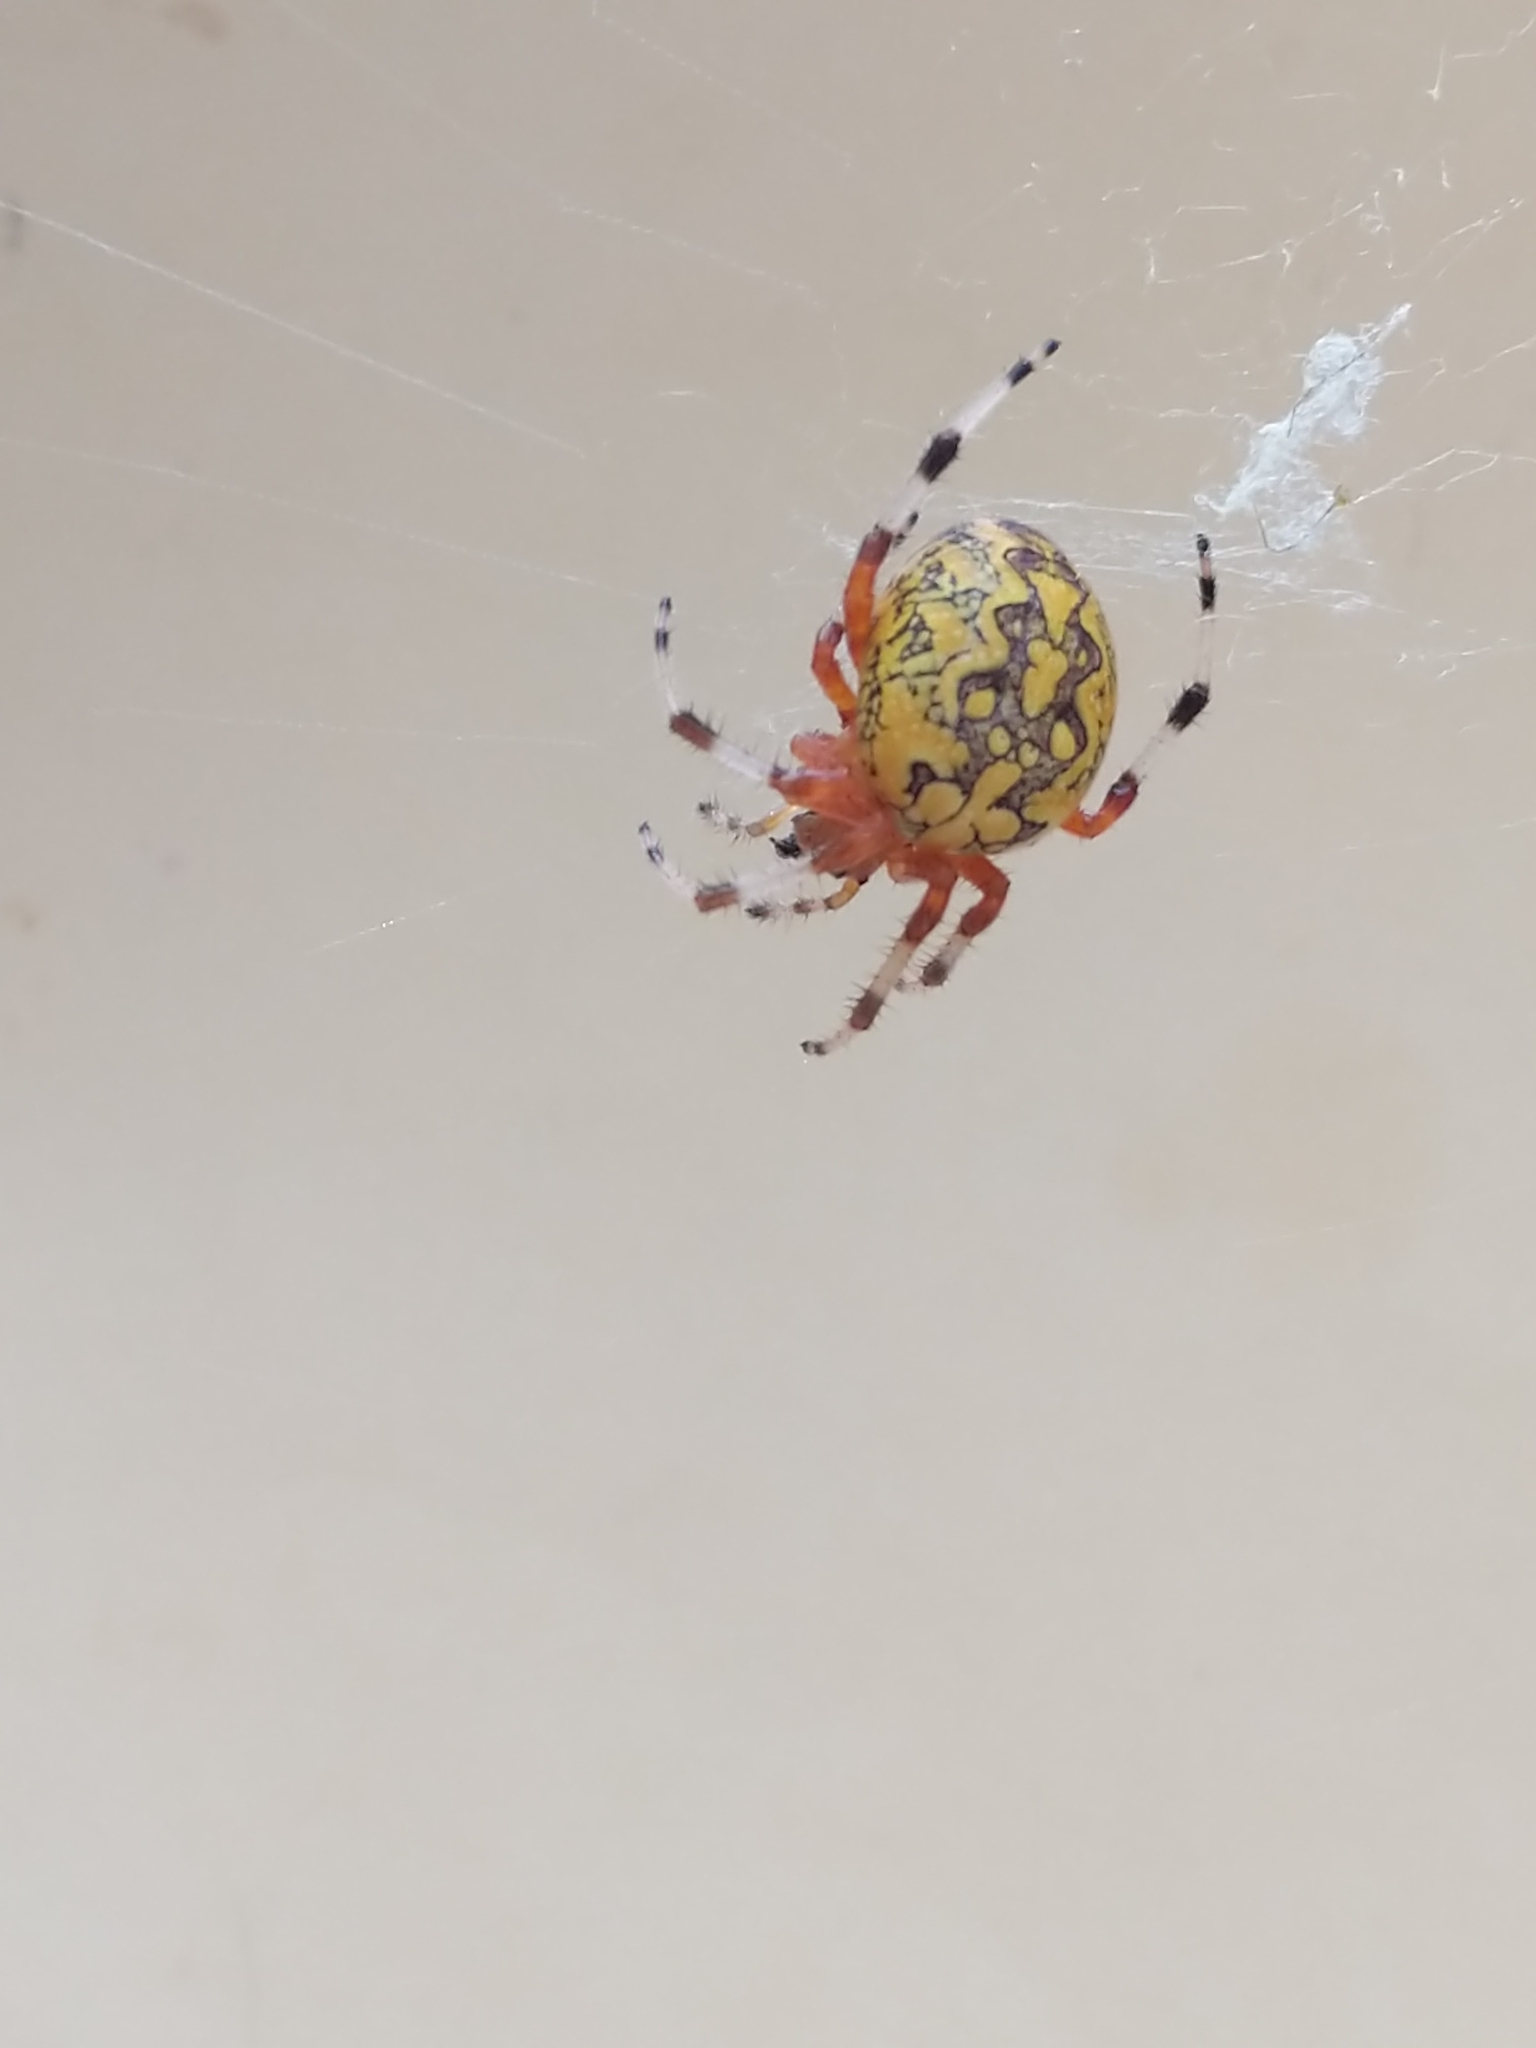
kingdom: Animalia
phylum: Arthropoda
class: Arachnida
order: Araneae
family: Araneidae
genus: Araneus
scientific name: Araneus marmoreus
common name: Marbled orbweaver
